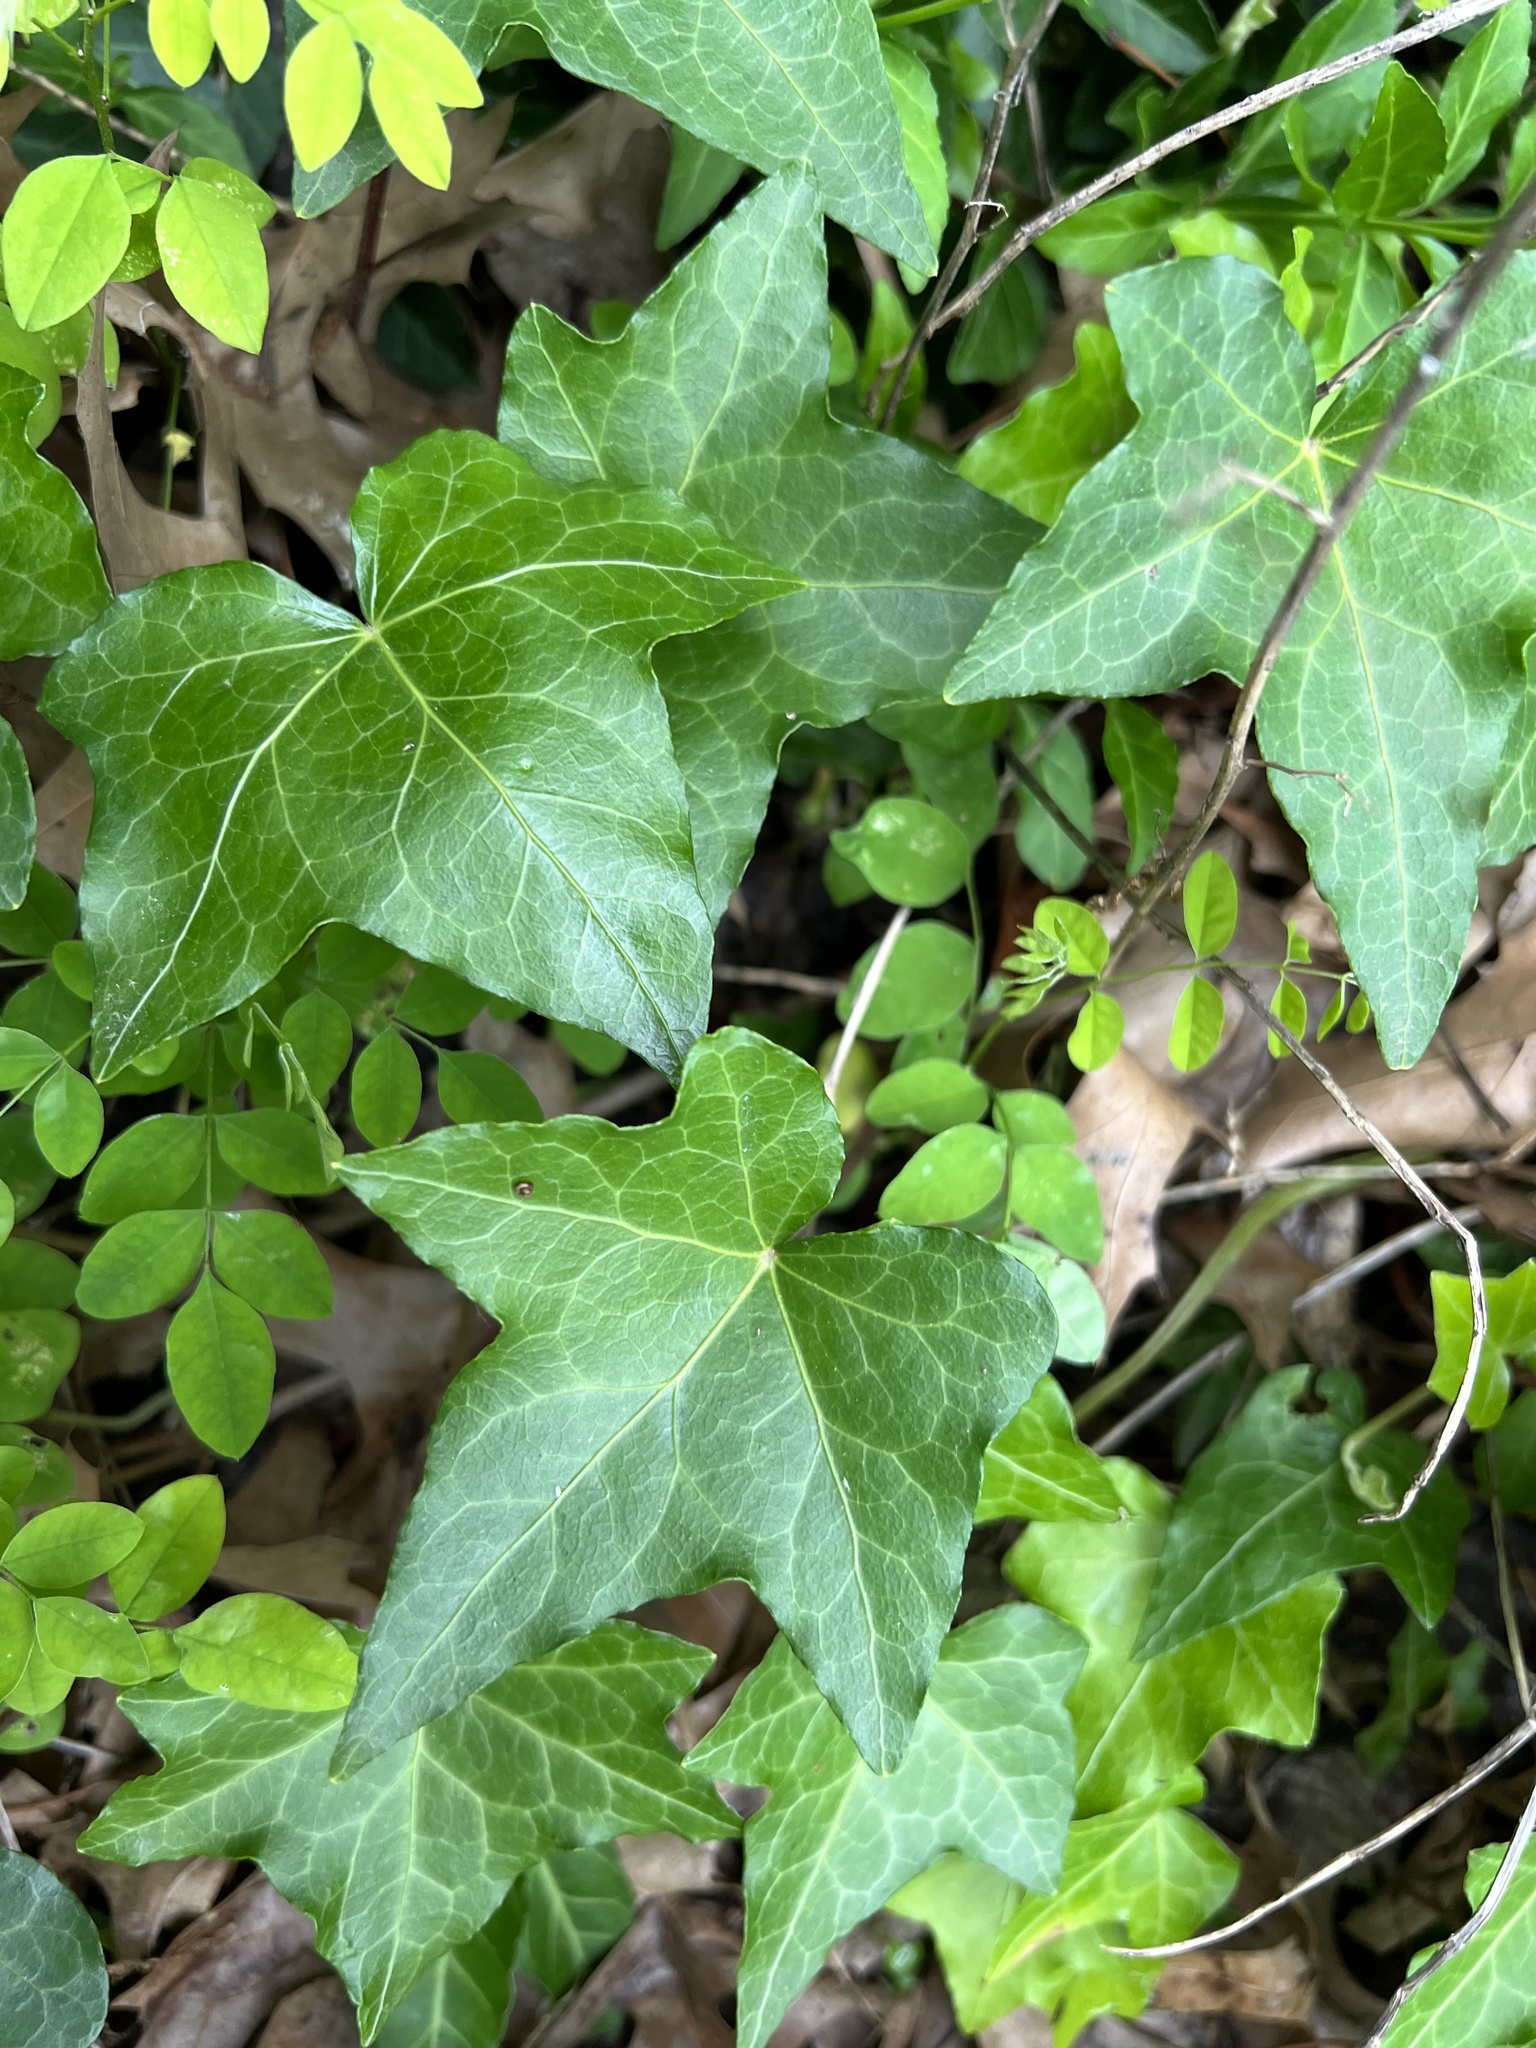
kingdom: Plantae
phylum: Tracheophyta
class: Magnoliopsida
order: Apiales
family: Araliaceae
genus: Hedera
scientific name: Hedera helix
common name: Ivy
